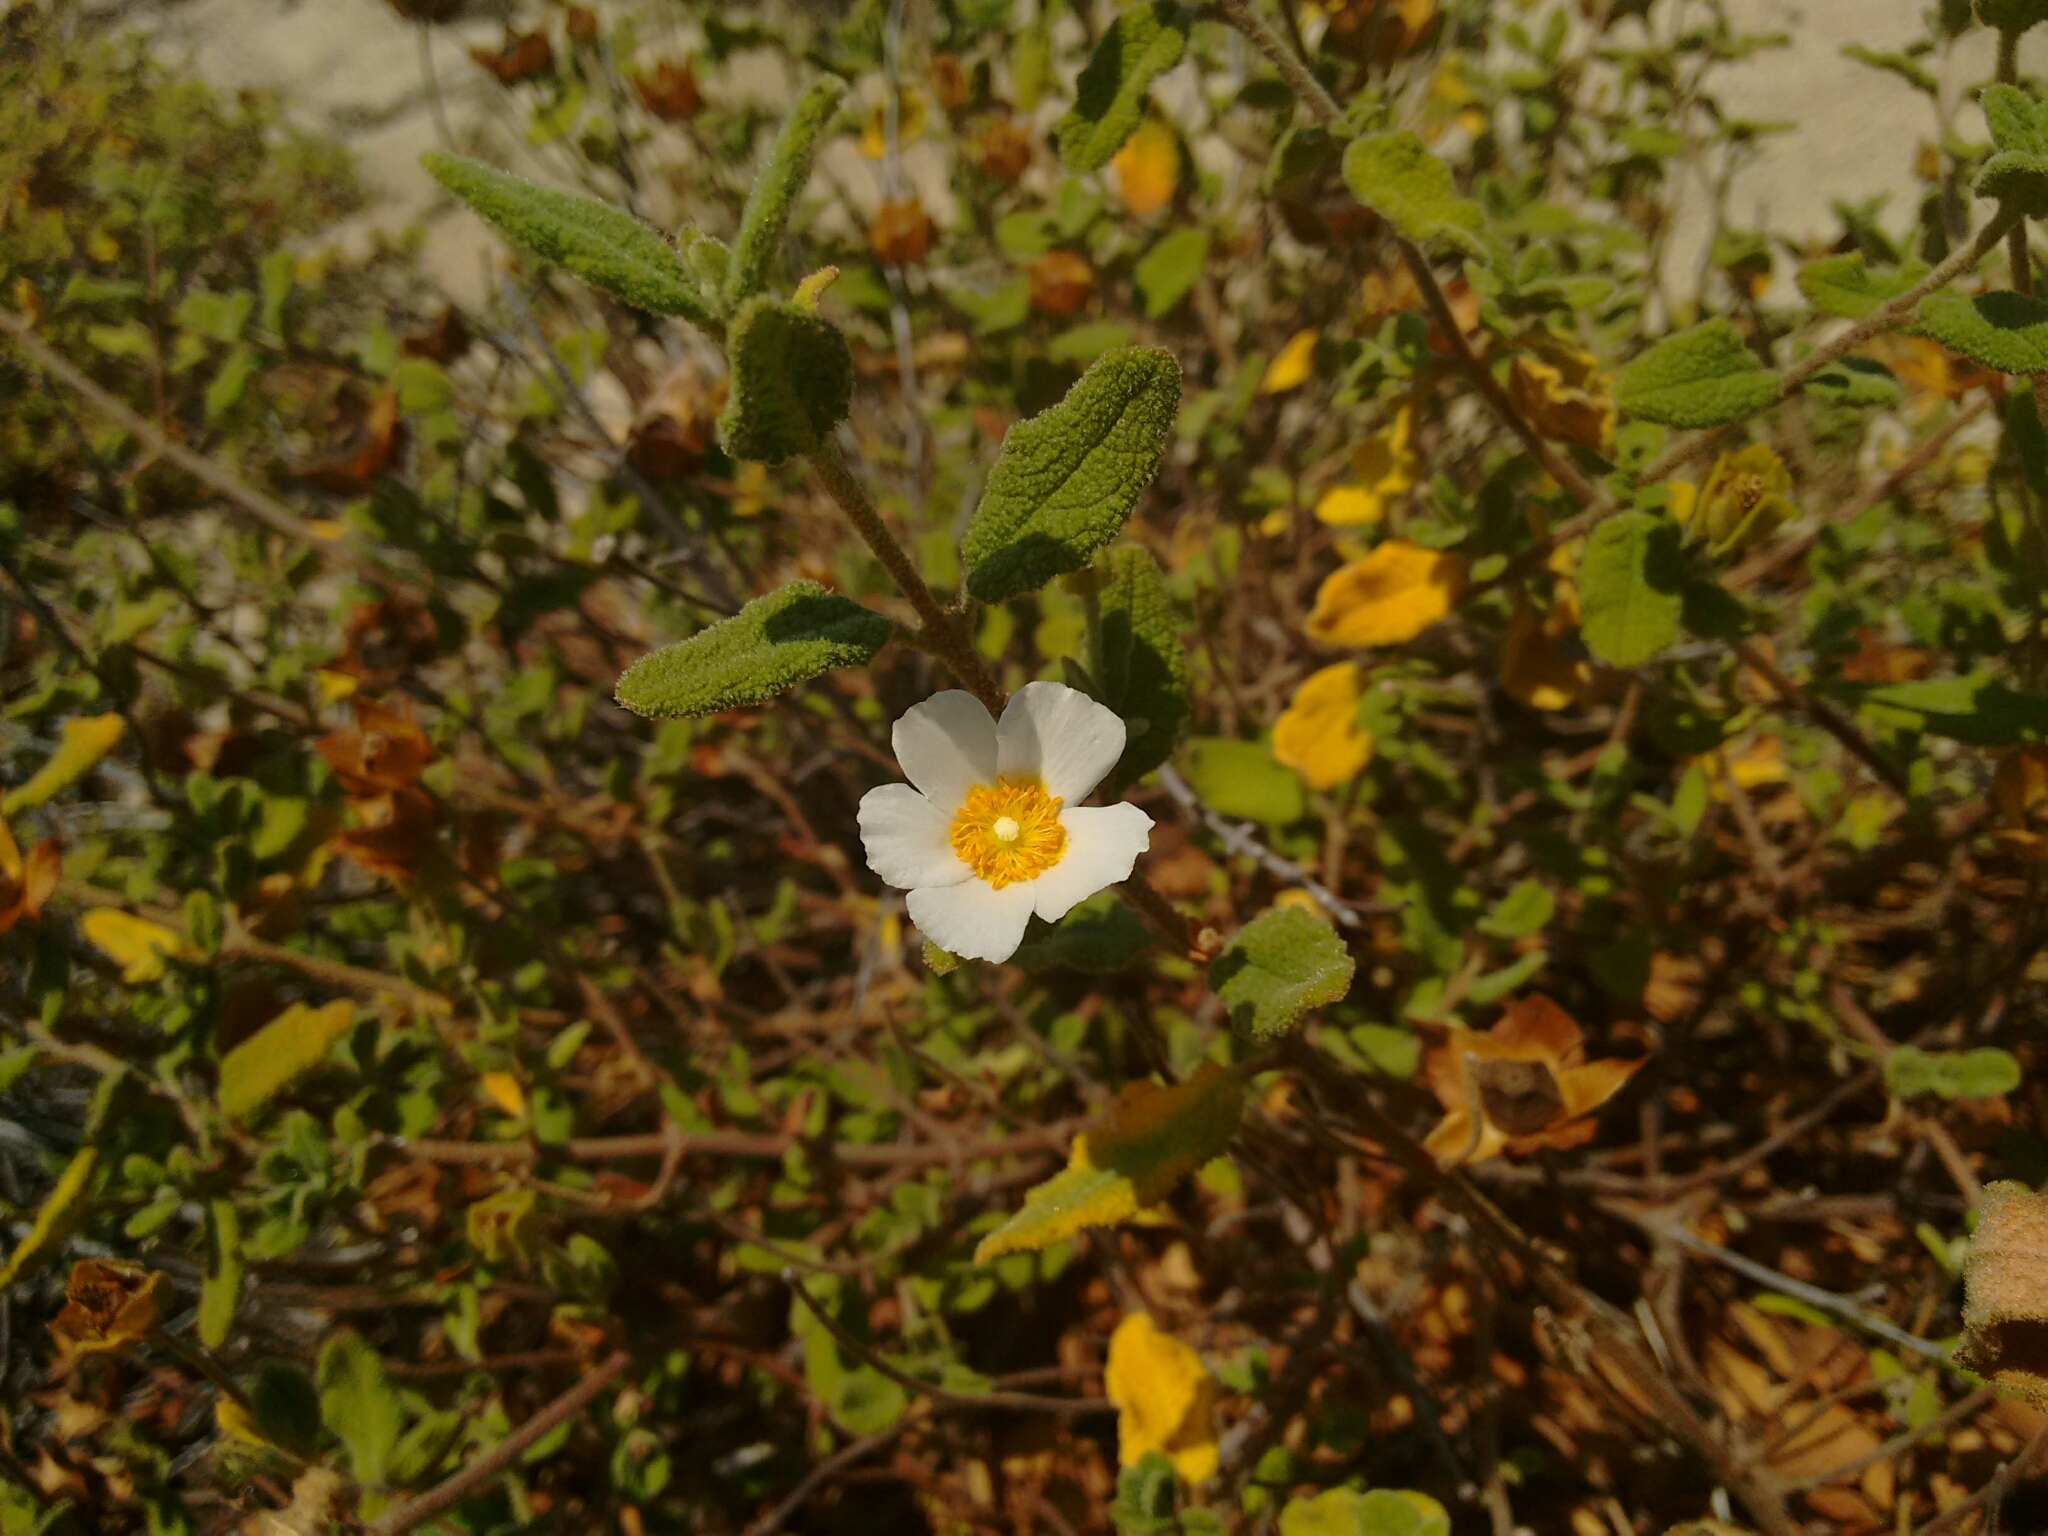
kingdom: Plantae
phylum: Tracheophyta
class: Magnoliopsida
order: Malvales
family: Cistaceae
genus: Cistus
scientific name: Cistus salviifolius
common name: Salvia cistus
